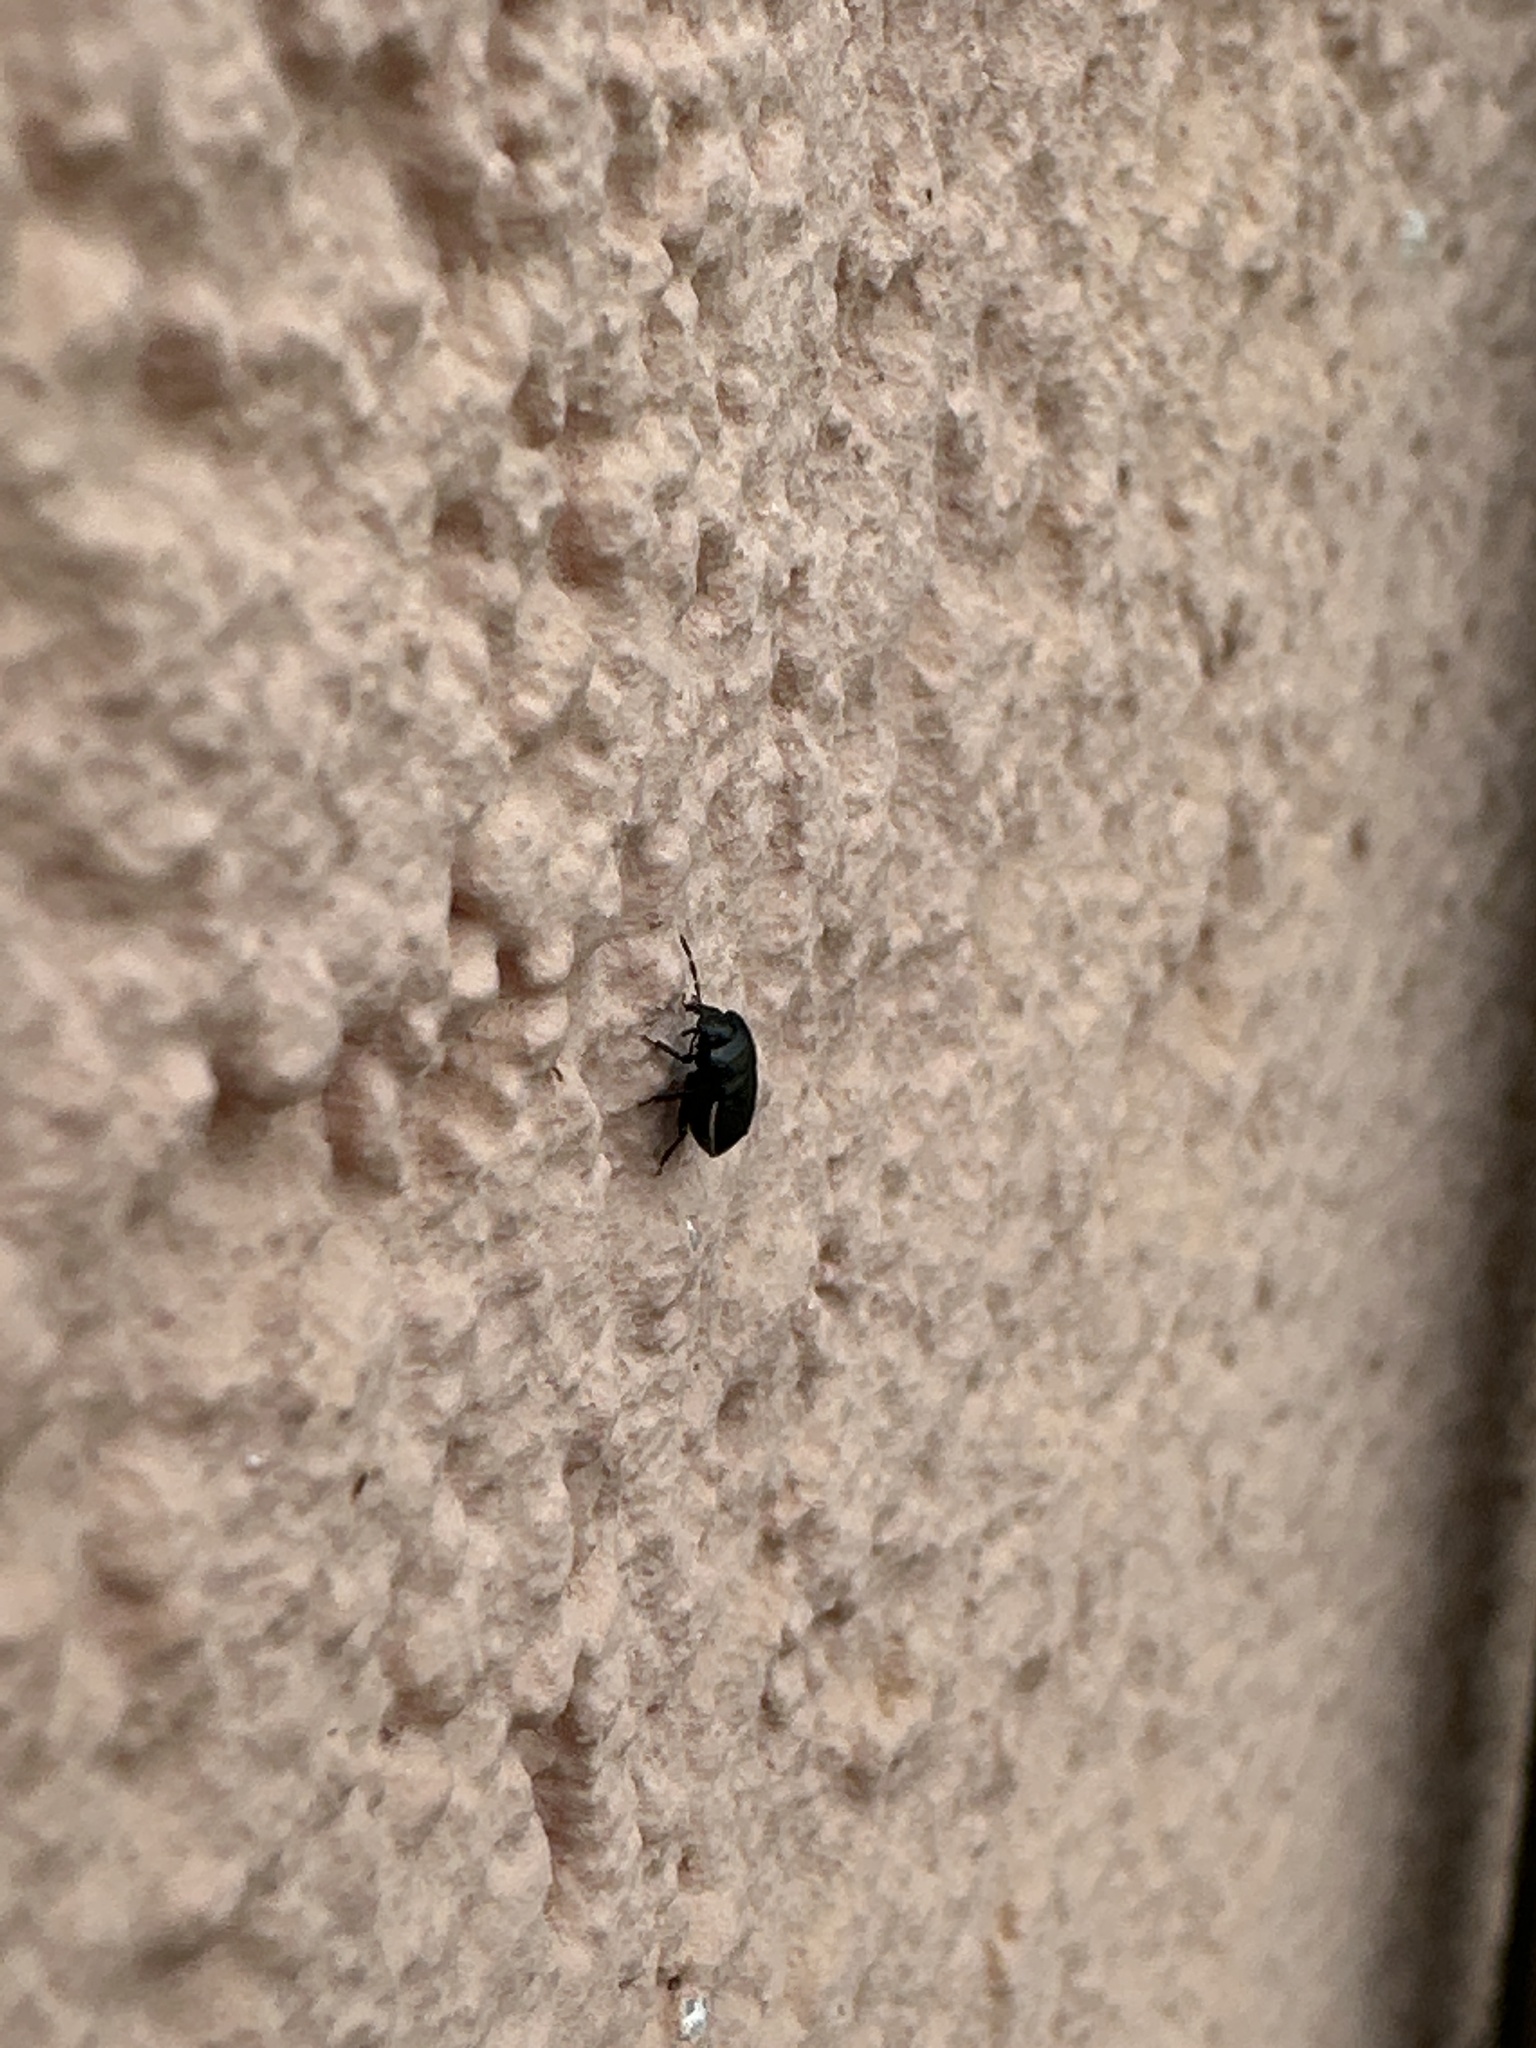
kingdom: Animalia
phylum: Arthropoda
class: Insecta
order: Hemiptera
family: Cydnidae
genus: Legnotus
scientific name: Legnotus limbosus
